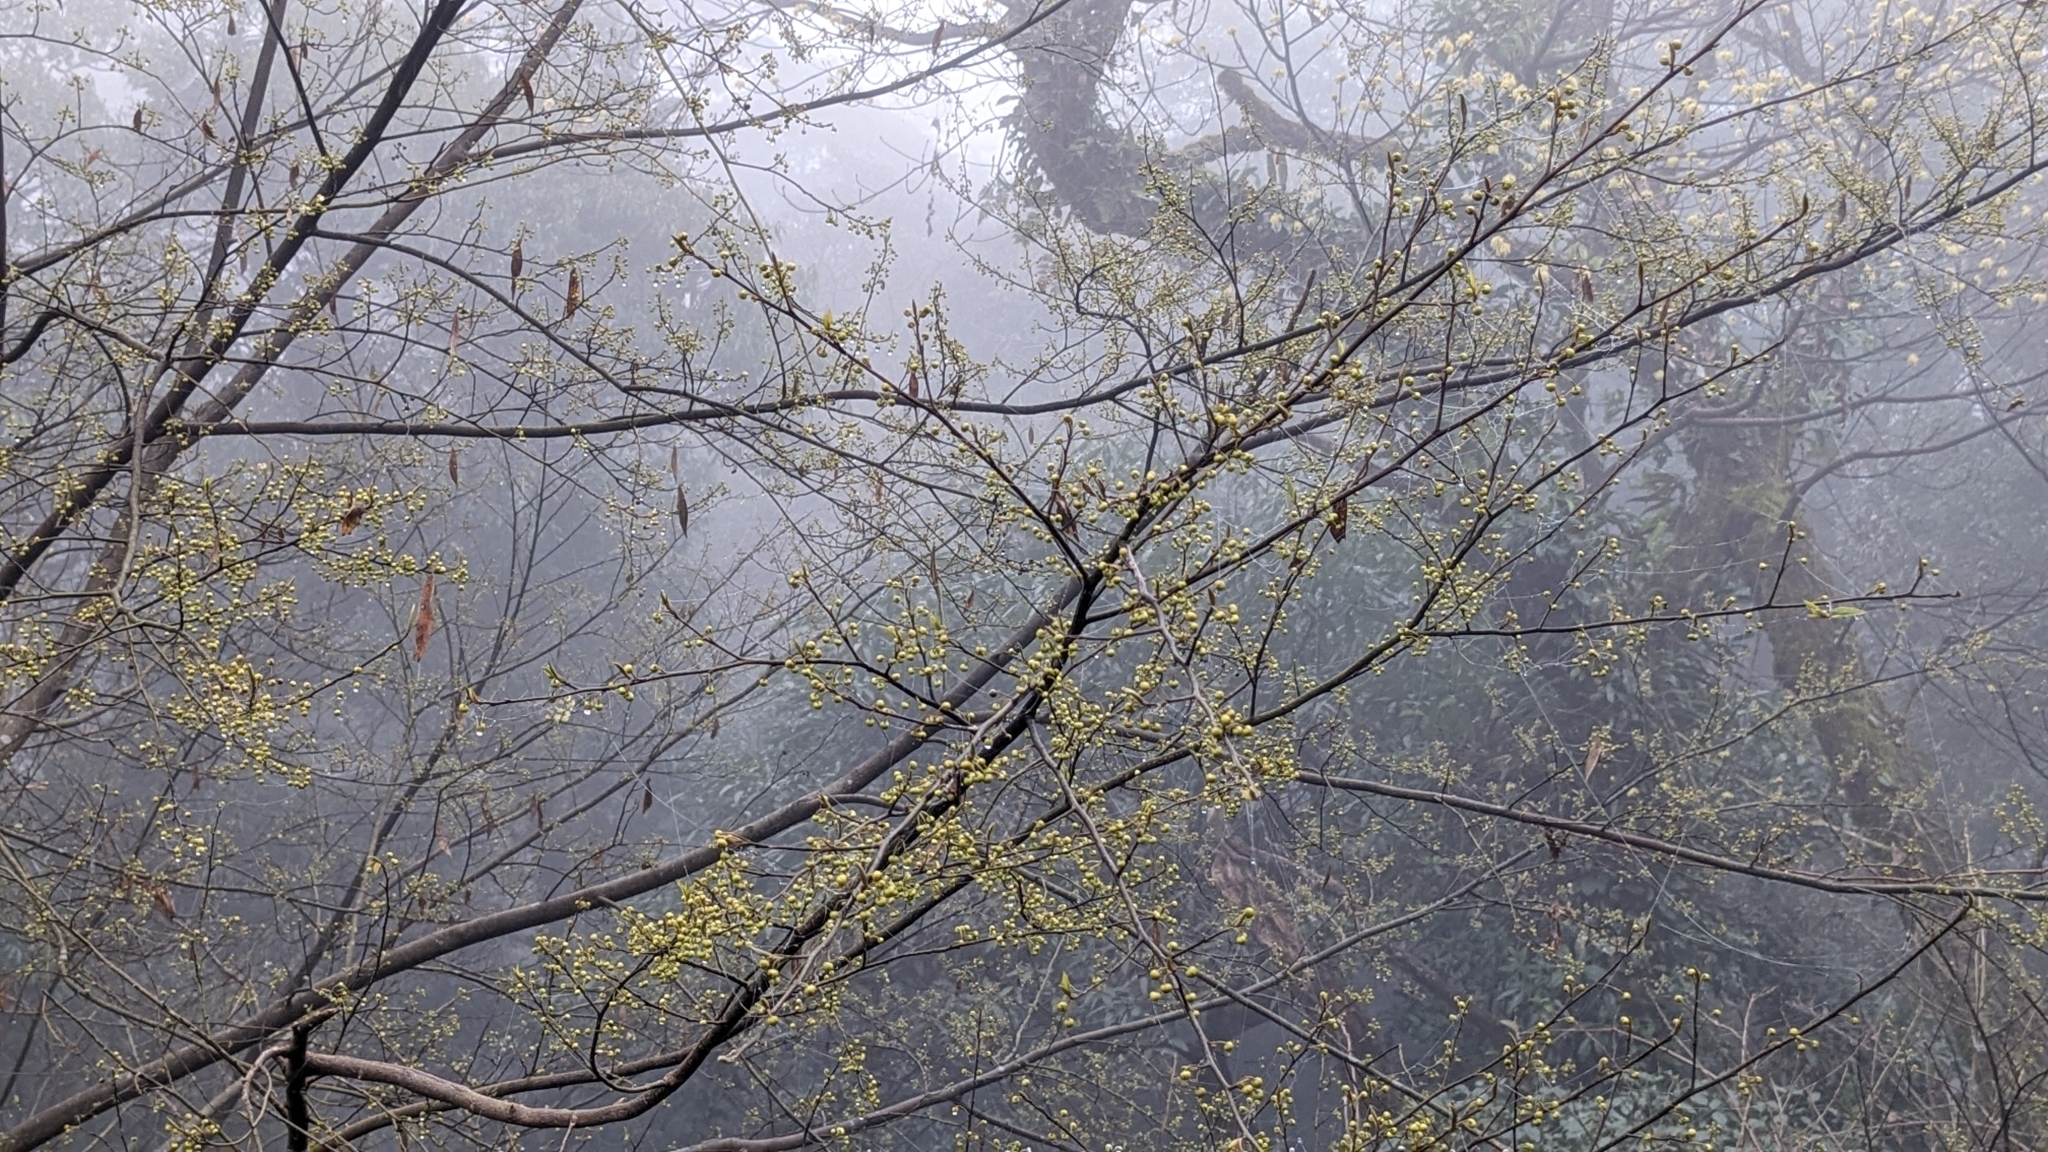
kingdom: Plantae
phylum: Tracheophyta
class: Magnoliopsida
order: Laurales
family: Lauraceae
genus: Litsea
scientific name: Litsea cubeba
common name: Mountain-pepper
